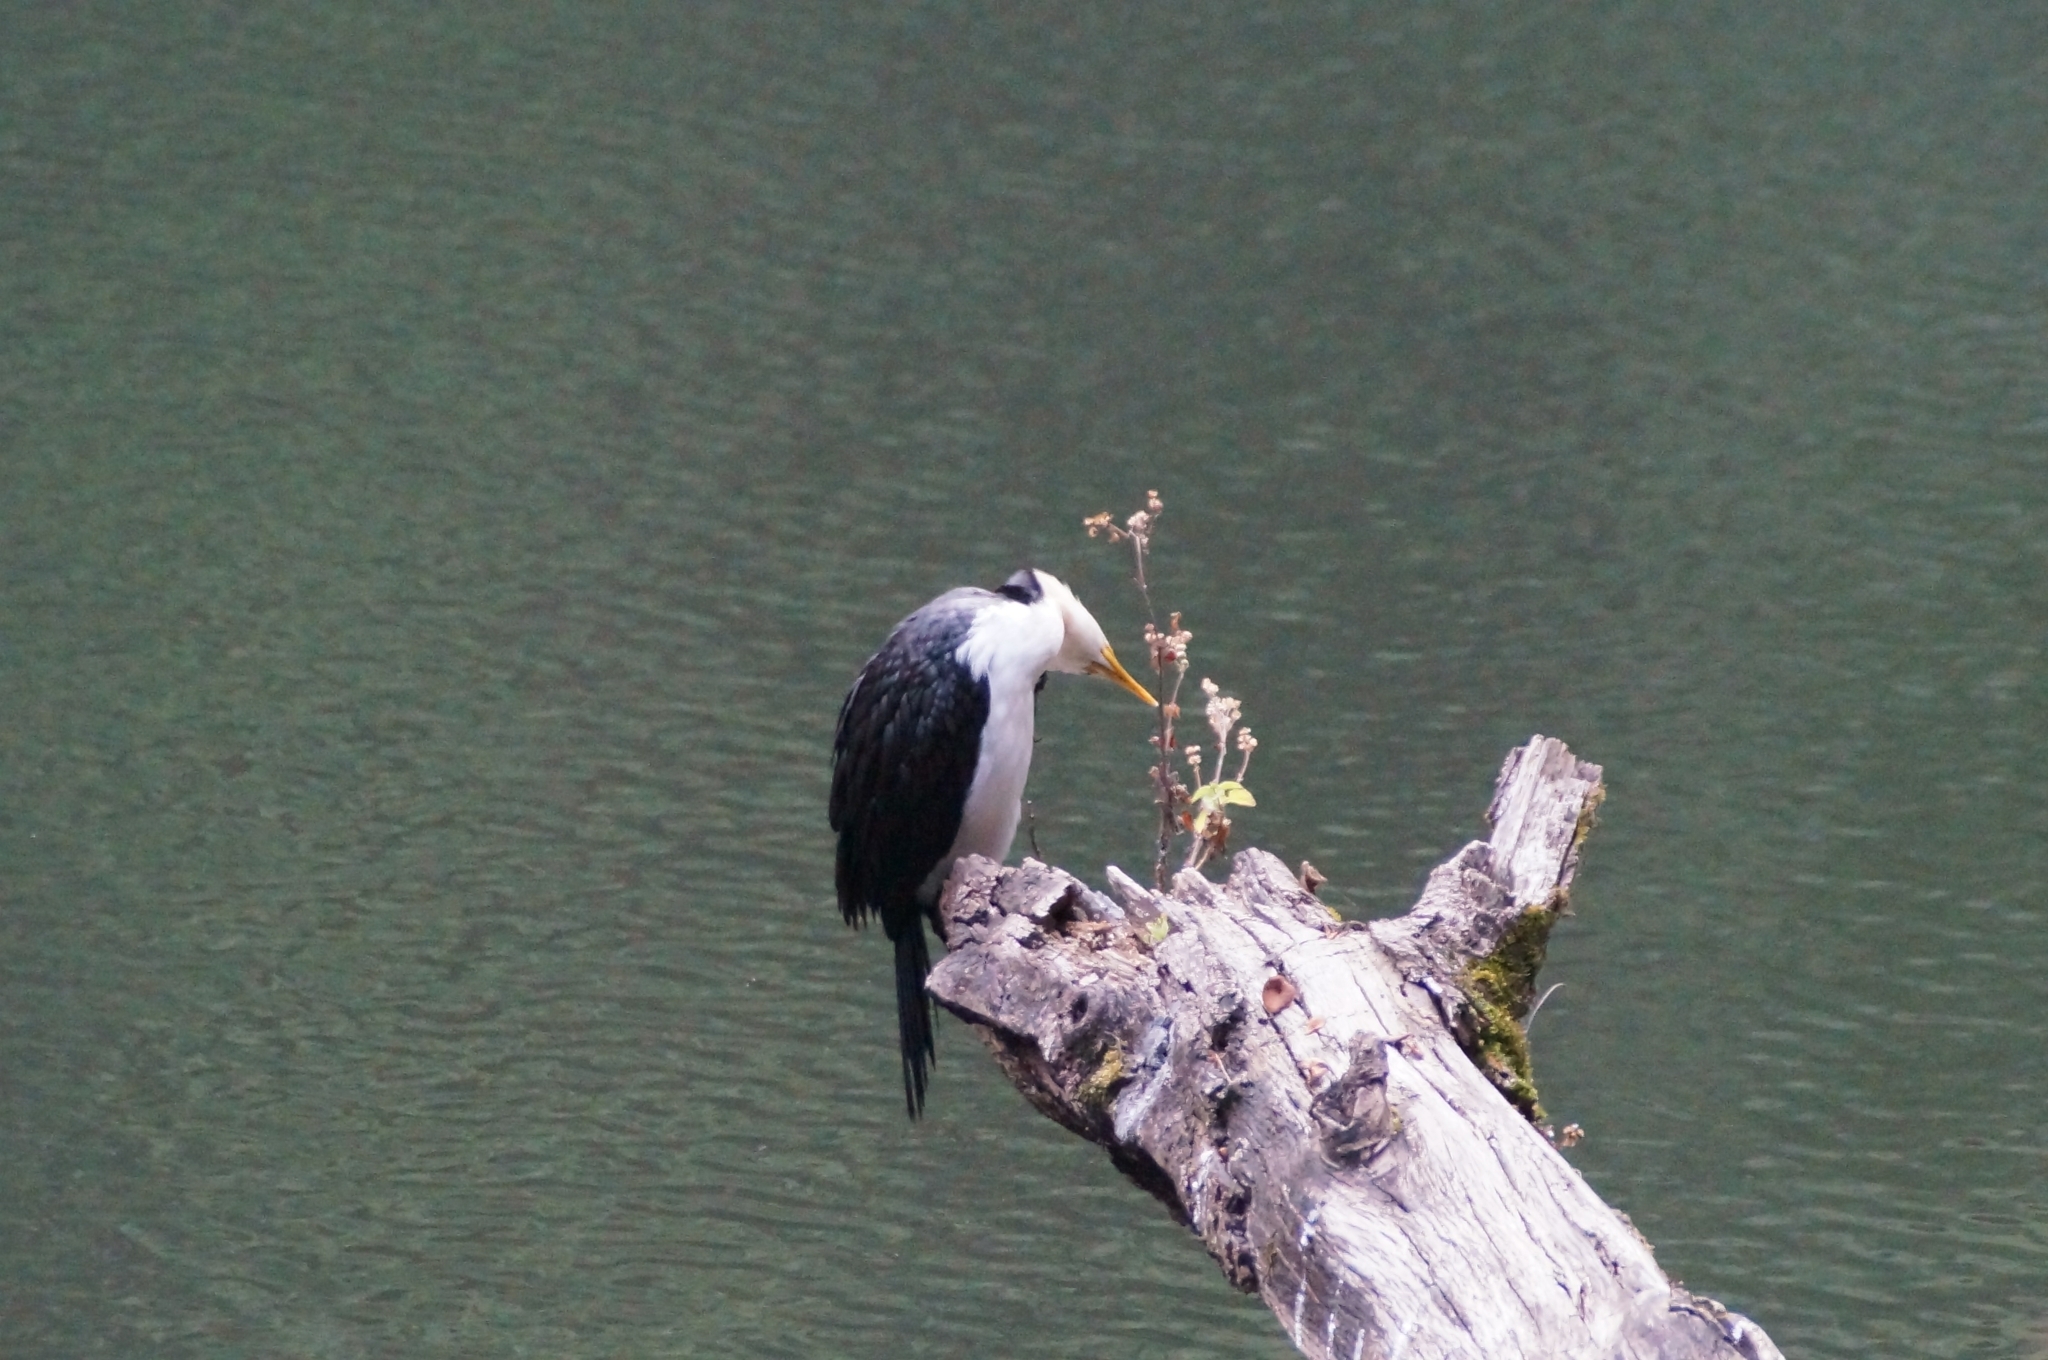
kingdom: Animalia
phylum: Chordata
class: Aves
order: Suliformes
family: Phalacrocoracidae
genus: Microcarbo
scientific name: Microcarbo melanoleucos
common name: Little pied cormorant
